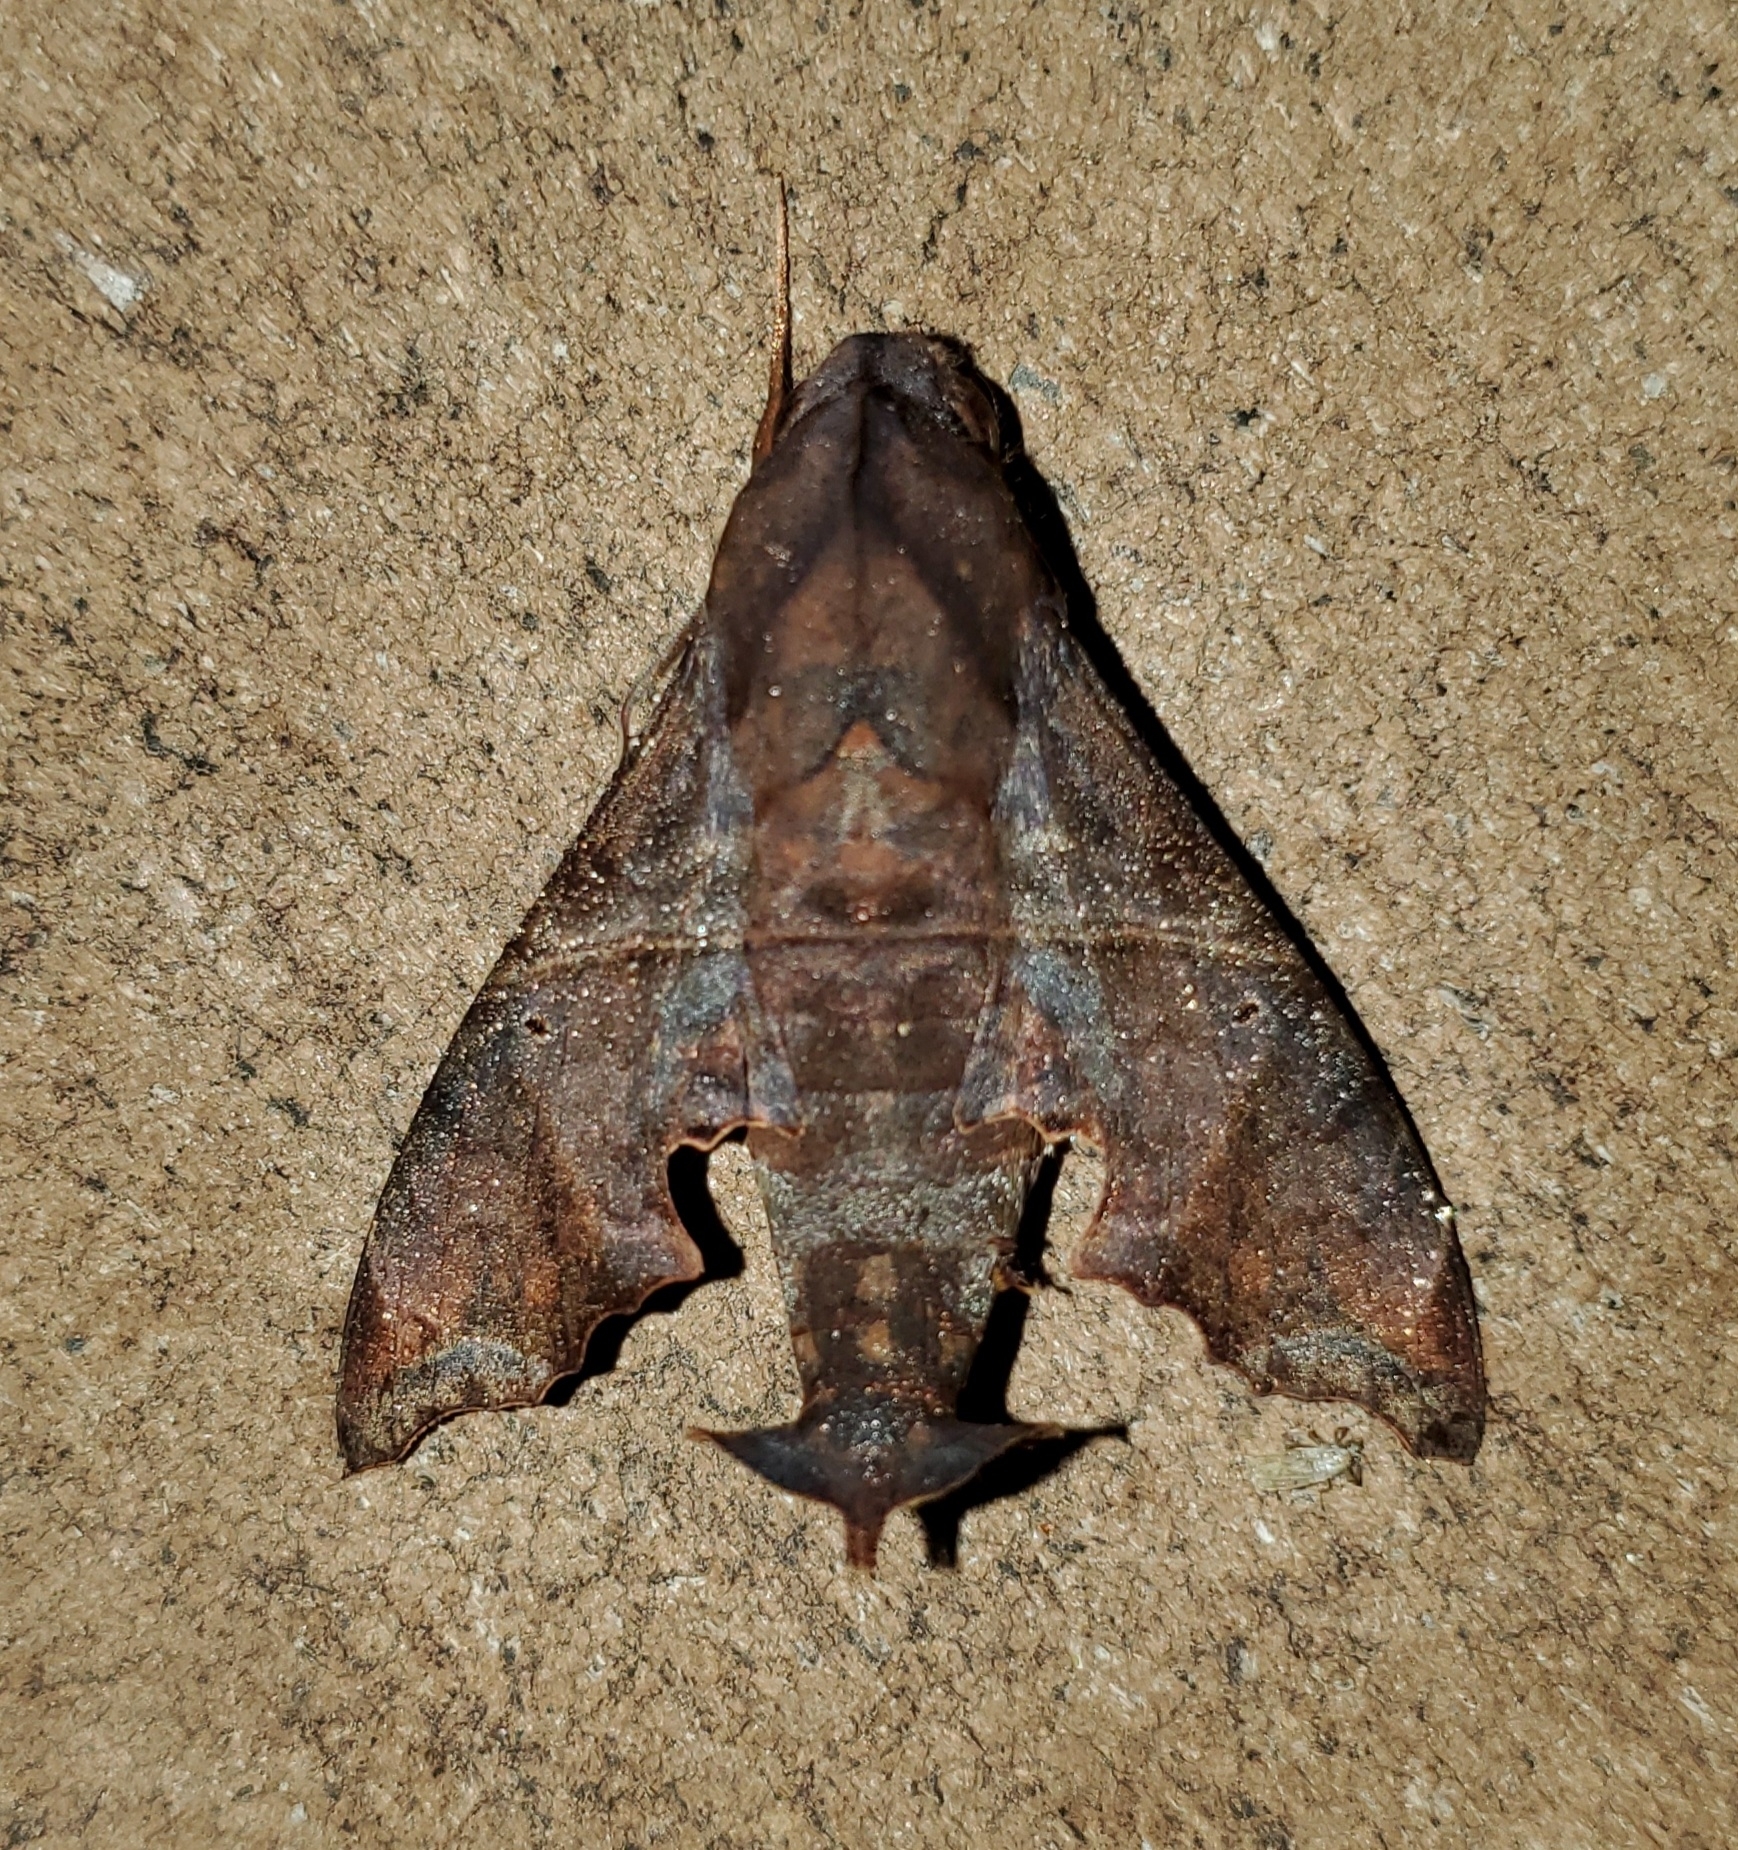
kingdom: Animalia
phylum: Arthropoda
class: Insecta
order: Lepidoptera
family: Sphingidae
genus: Enyo
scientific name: Enyo lugubris
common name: Mournful sphinx
